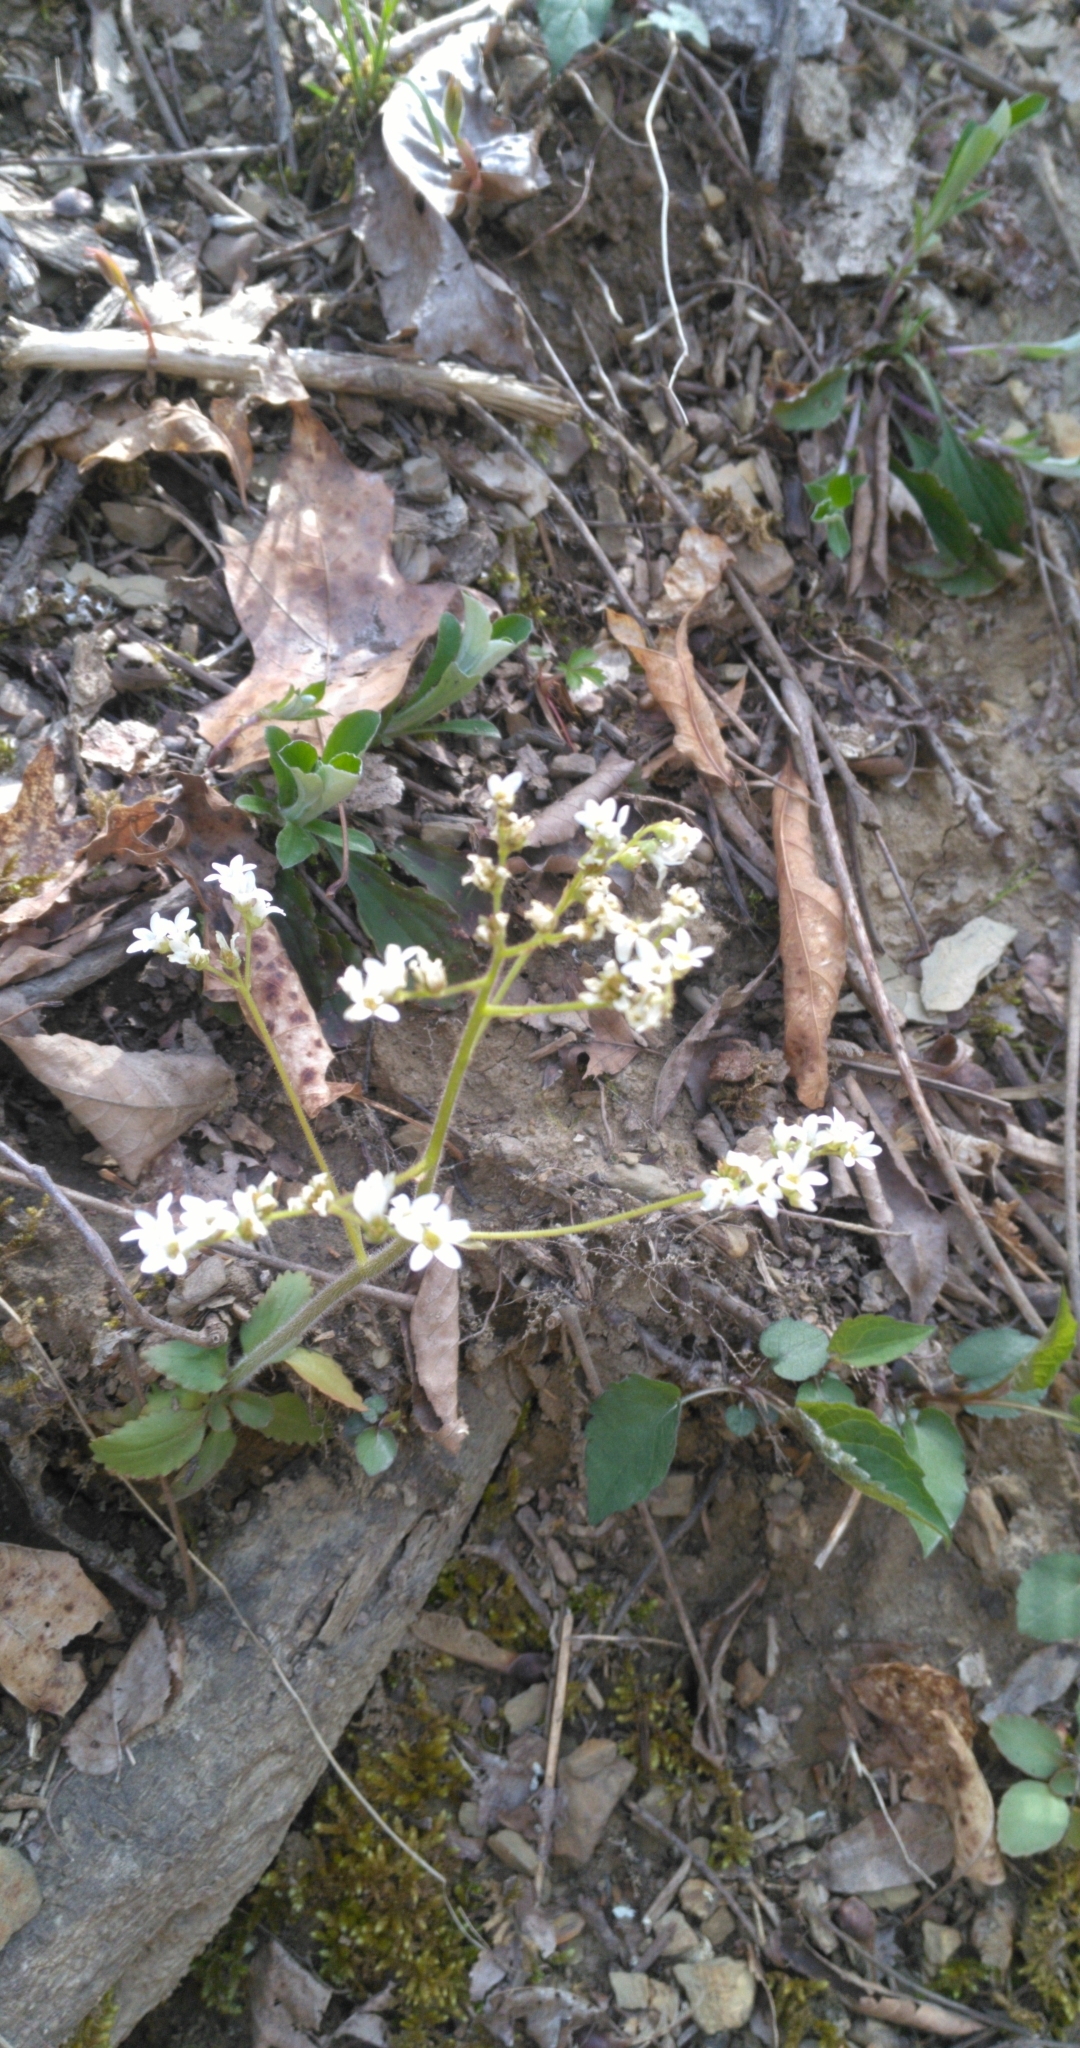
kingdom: Plantae
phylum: Tracheophyta
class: Magnoliopsida
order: Saxifragales
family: Saxifragaceae
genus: Micranthes
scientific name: Micranthes virginiensis
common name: Early saxifrage
